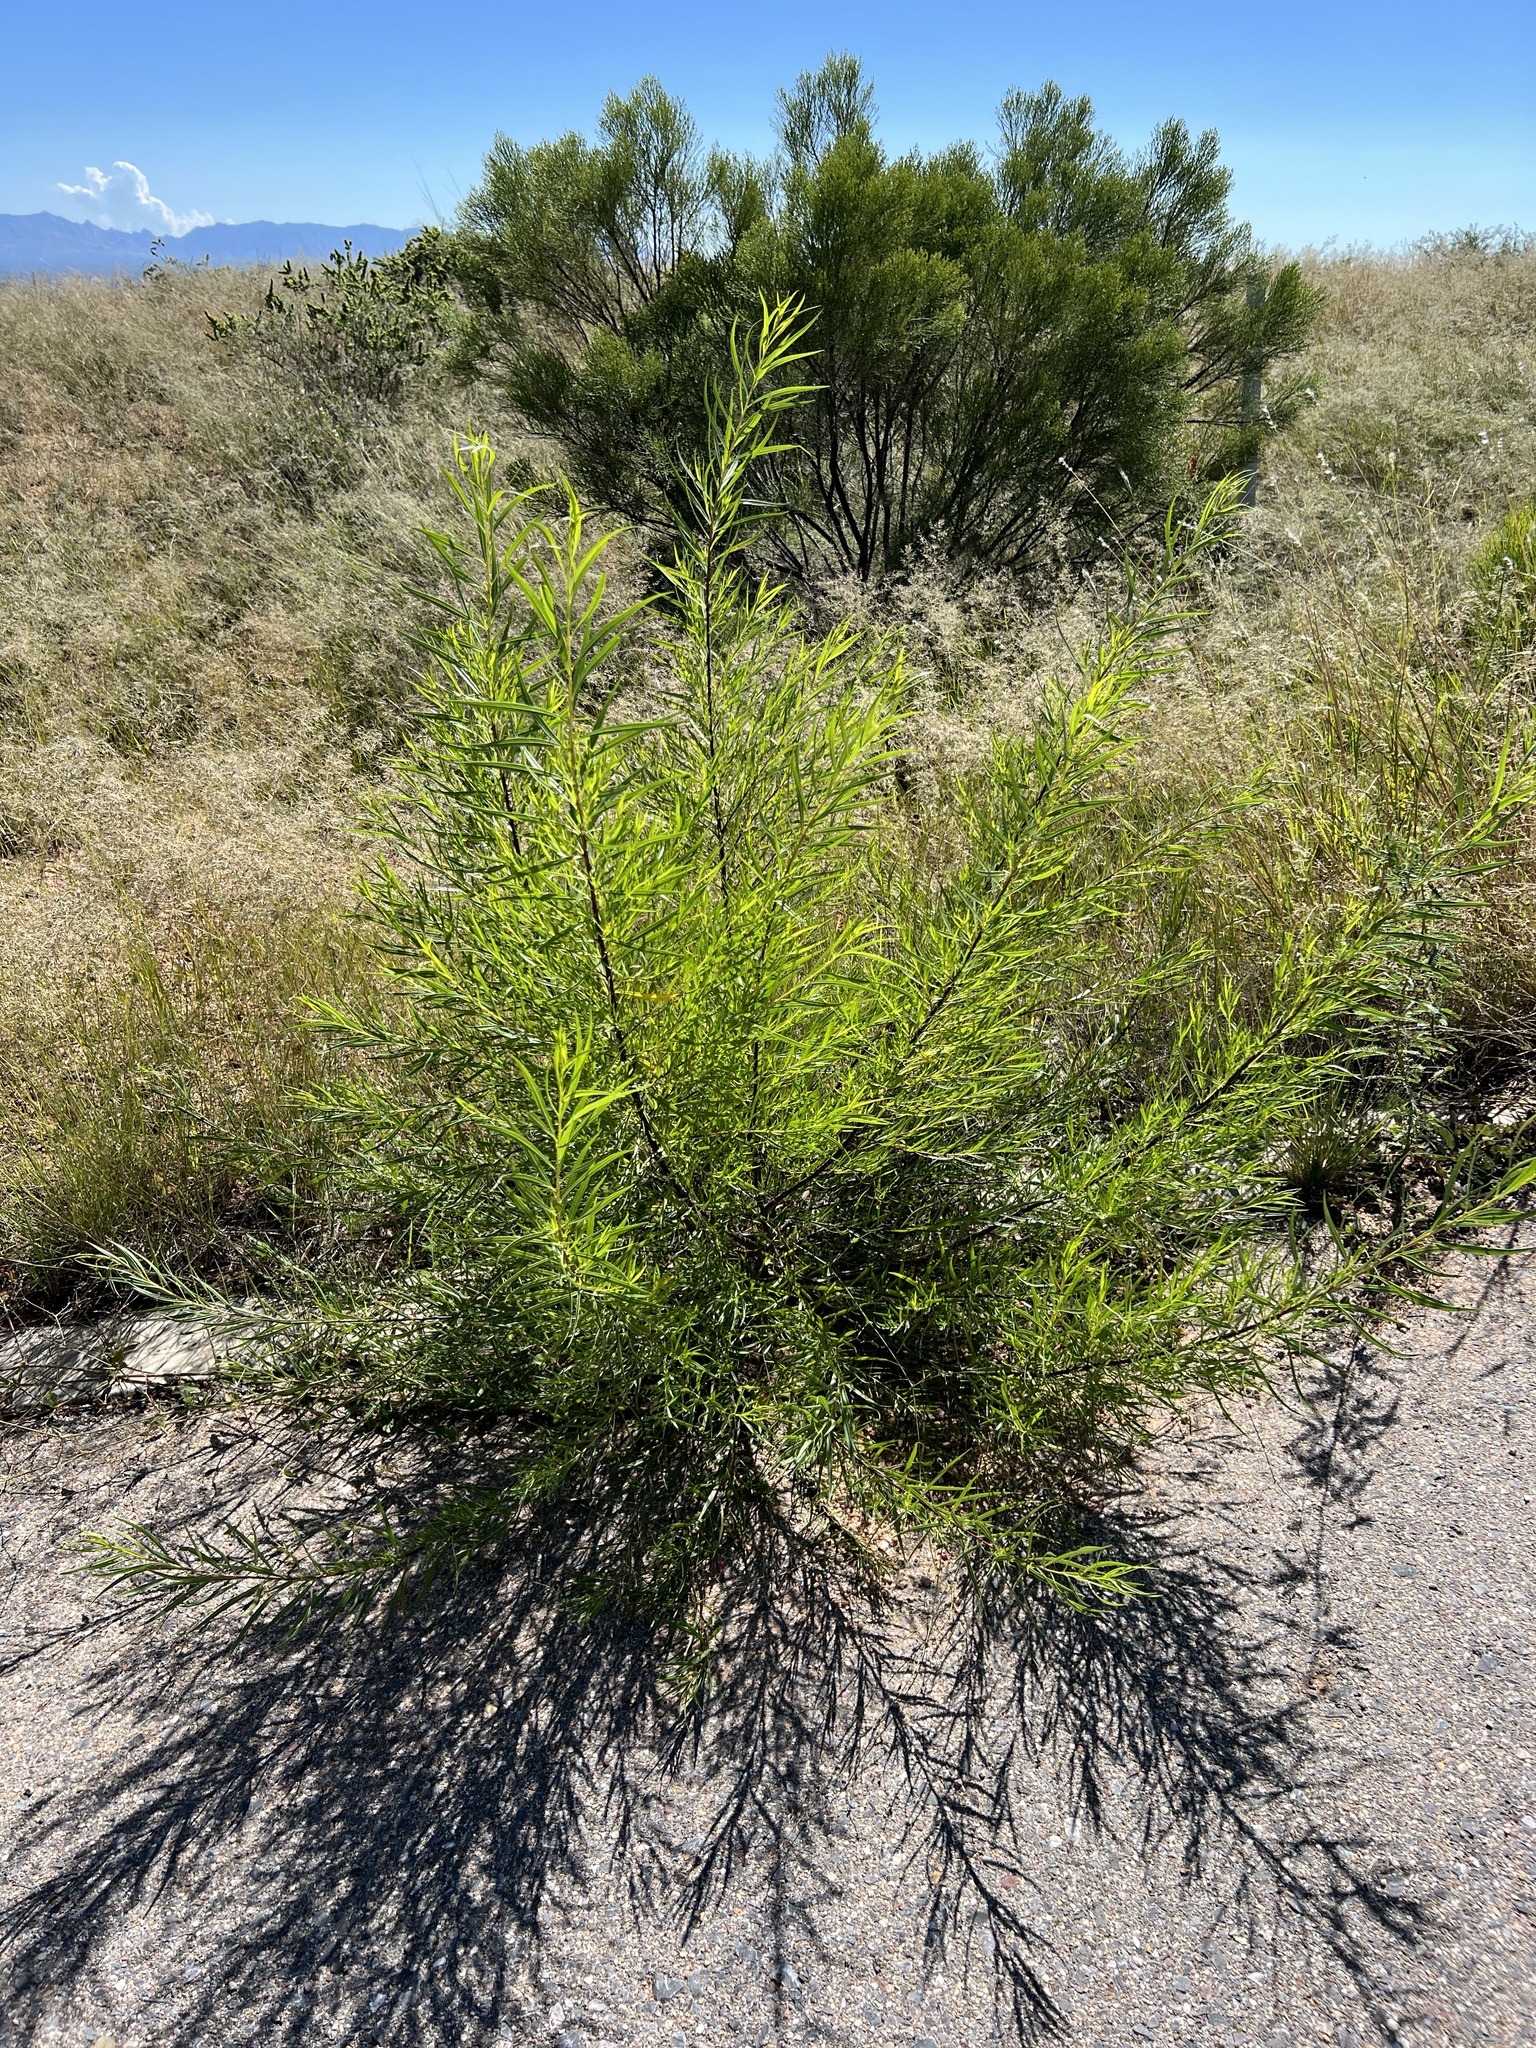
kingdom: Plantae
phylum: Tracheophyta
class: Magnoliopsida
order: Lamiales
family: Bignoniaceae
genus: Chilopsis
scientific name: Chilopsis linearis
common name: Desert-willow
